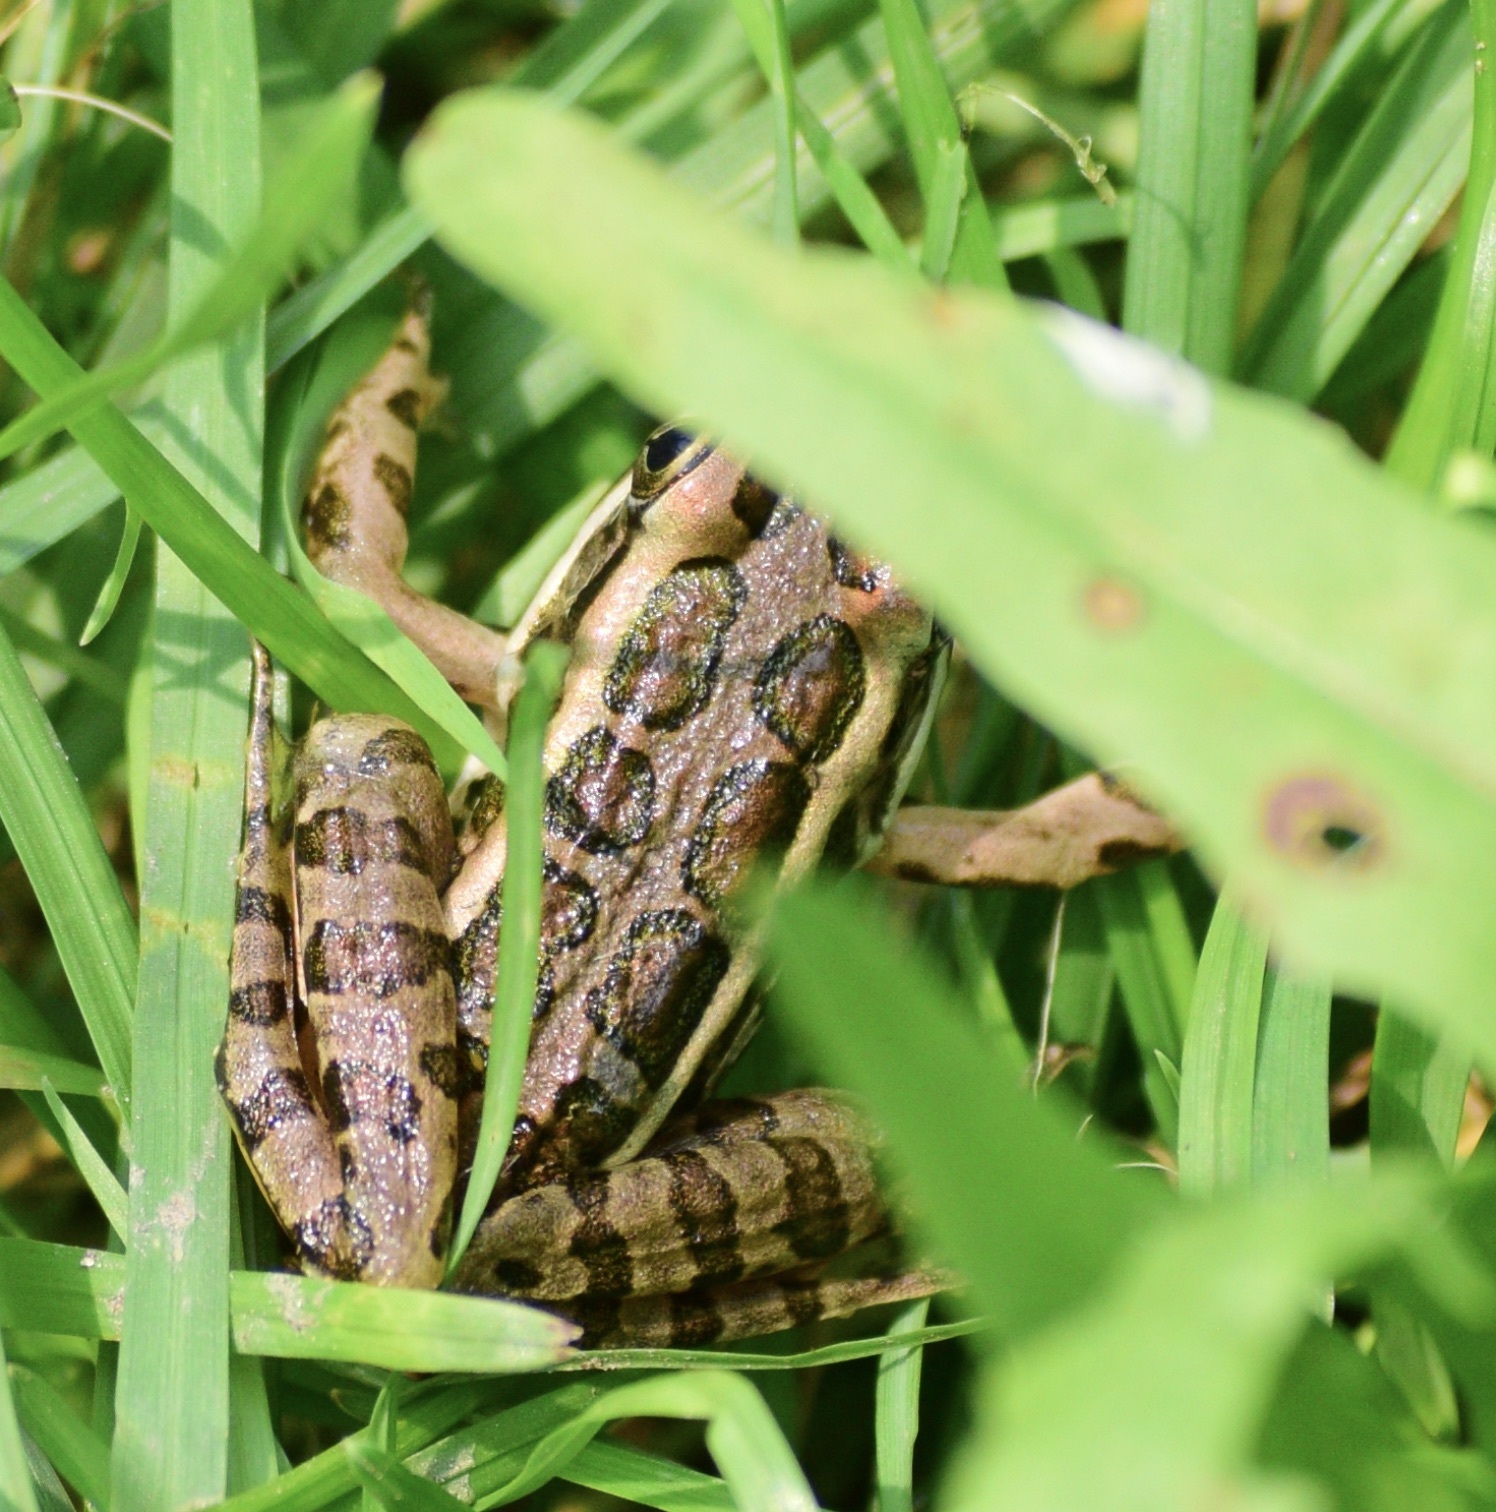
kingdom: Animalia
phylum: Chordata
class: Amphibia
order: Anura
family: Ranidae
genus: Lithobates
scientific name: Lithobates palustris
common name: Pickerel frog
